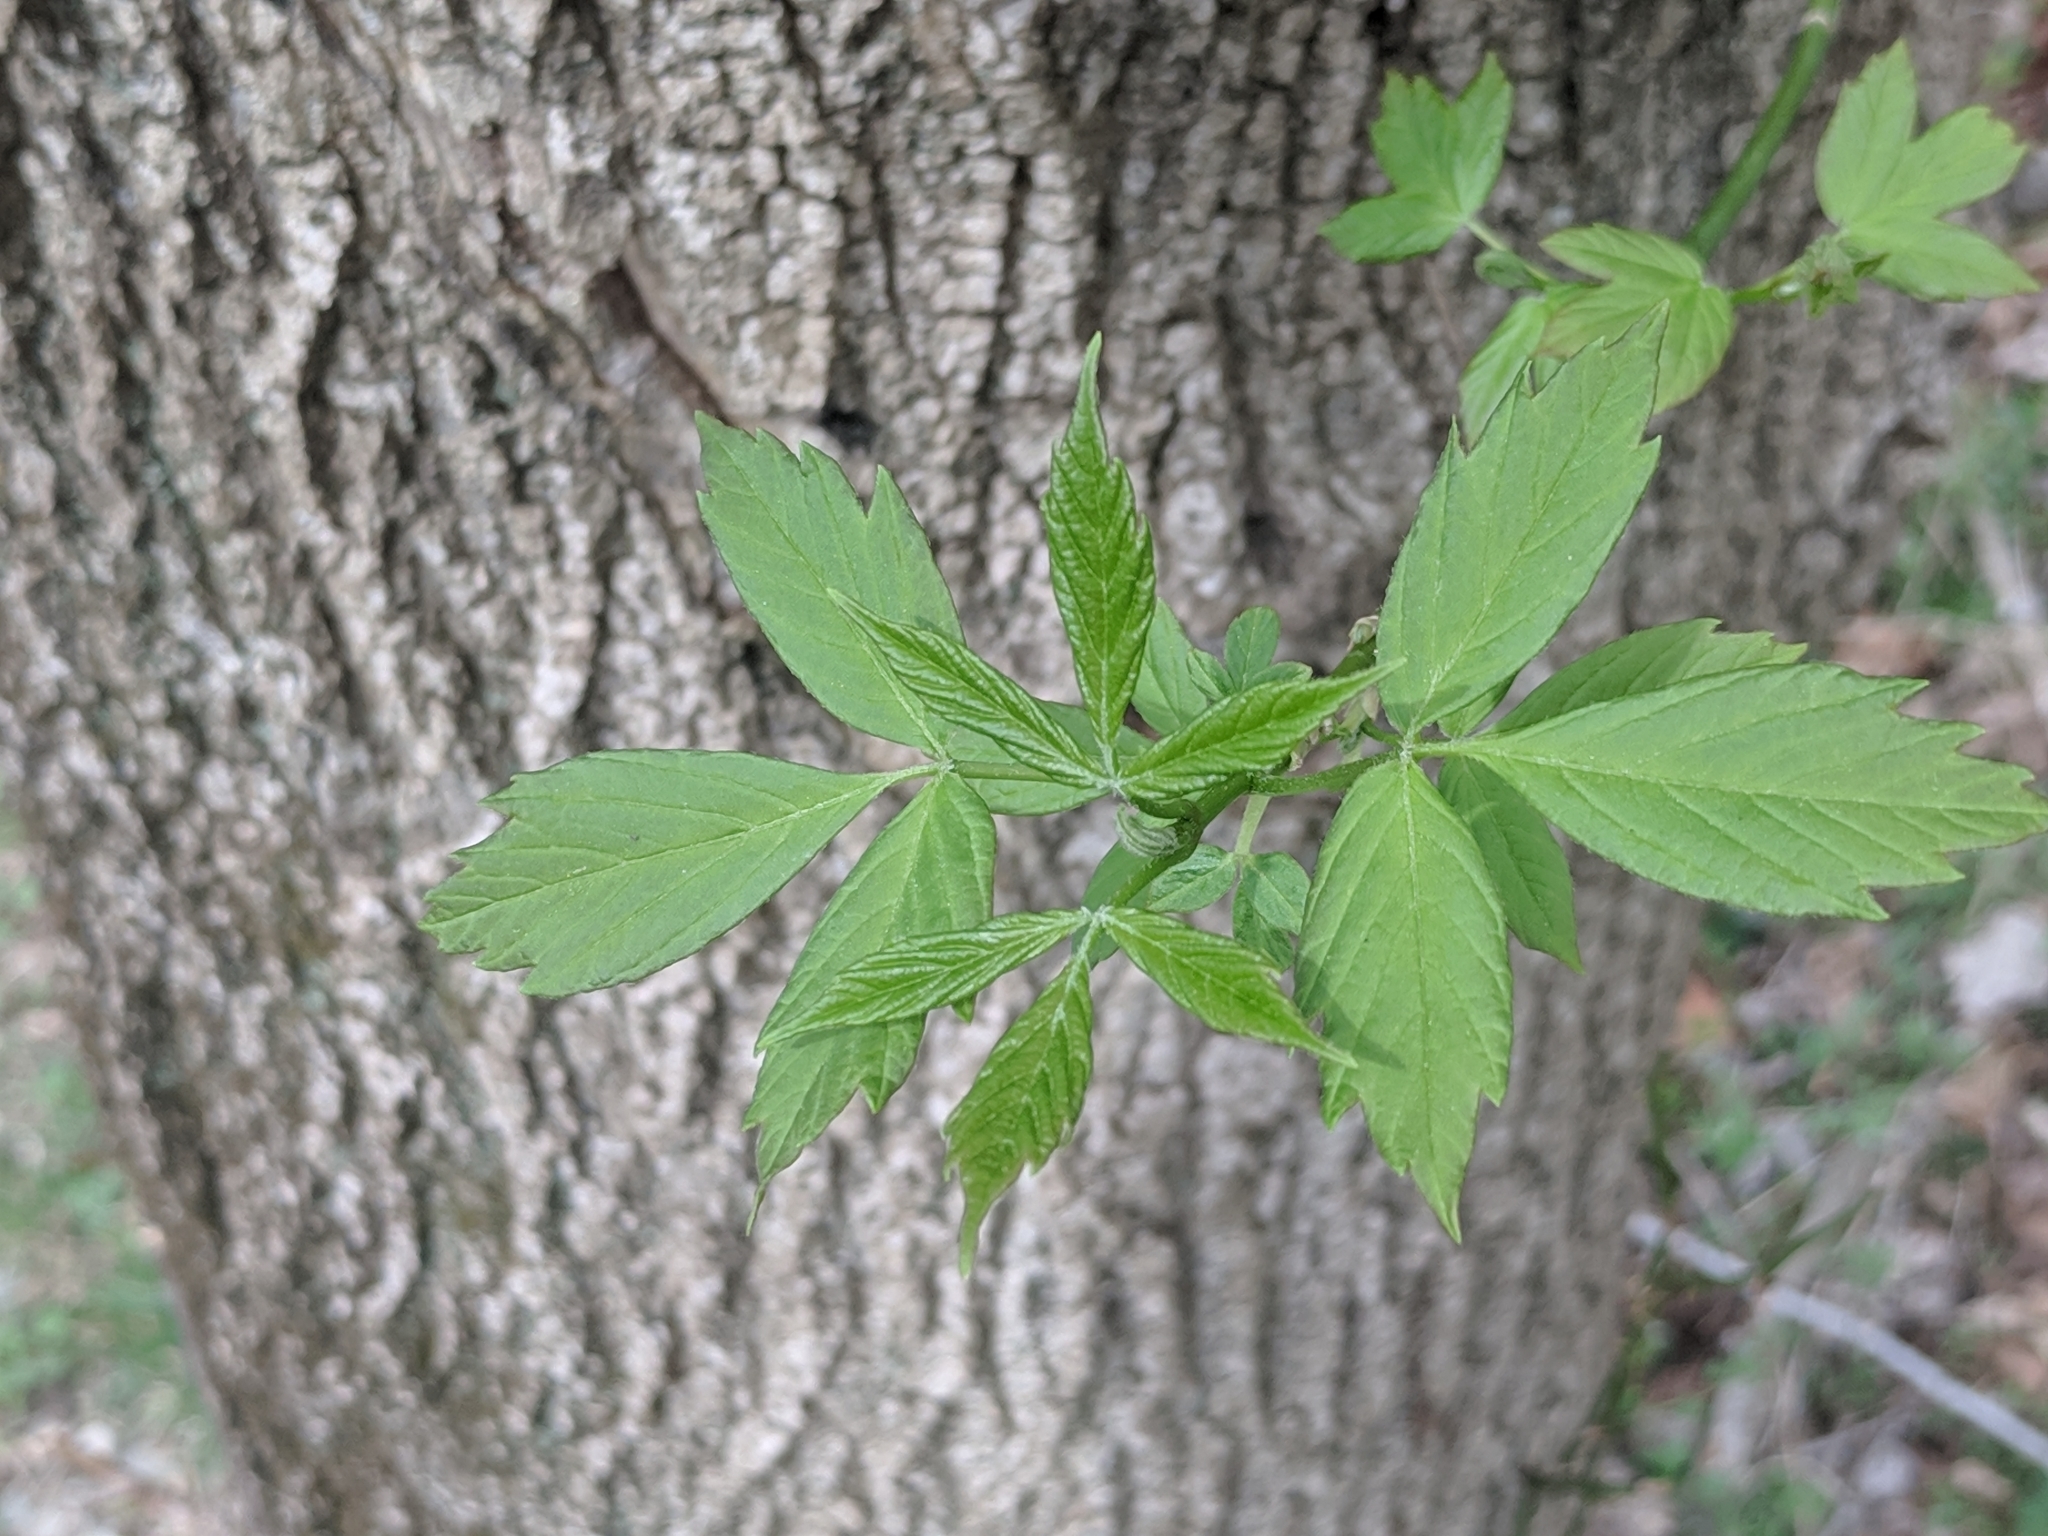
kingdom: Plantae
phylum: Tracheophyta
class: Magnoliopsida
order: Sapindales
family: Sapindaceae
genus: Acer
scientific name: Acer negundo
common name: Ashleaf maple
